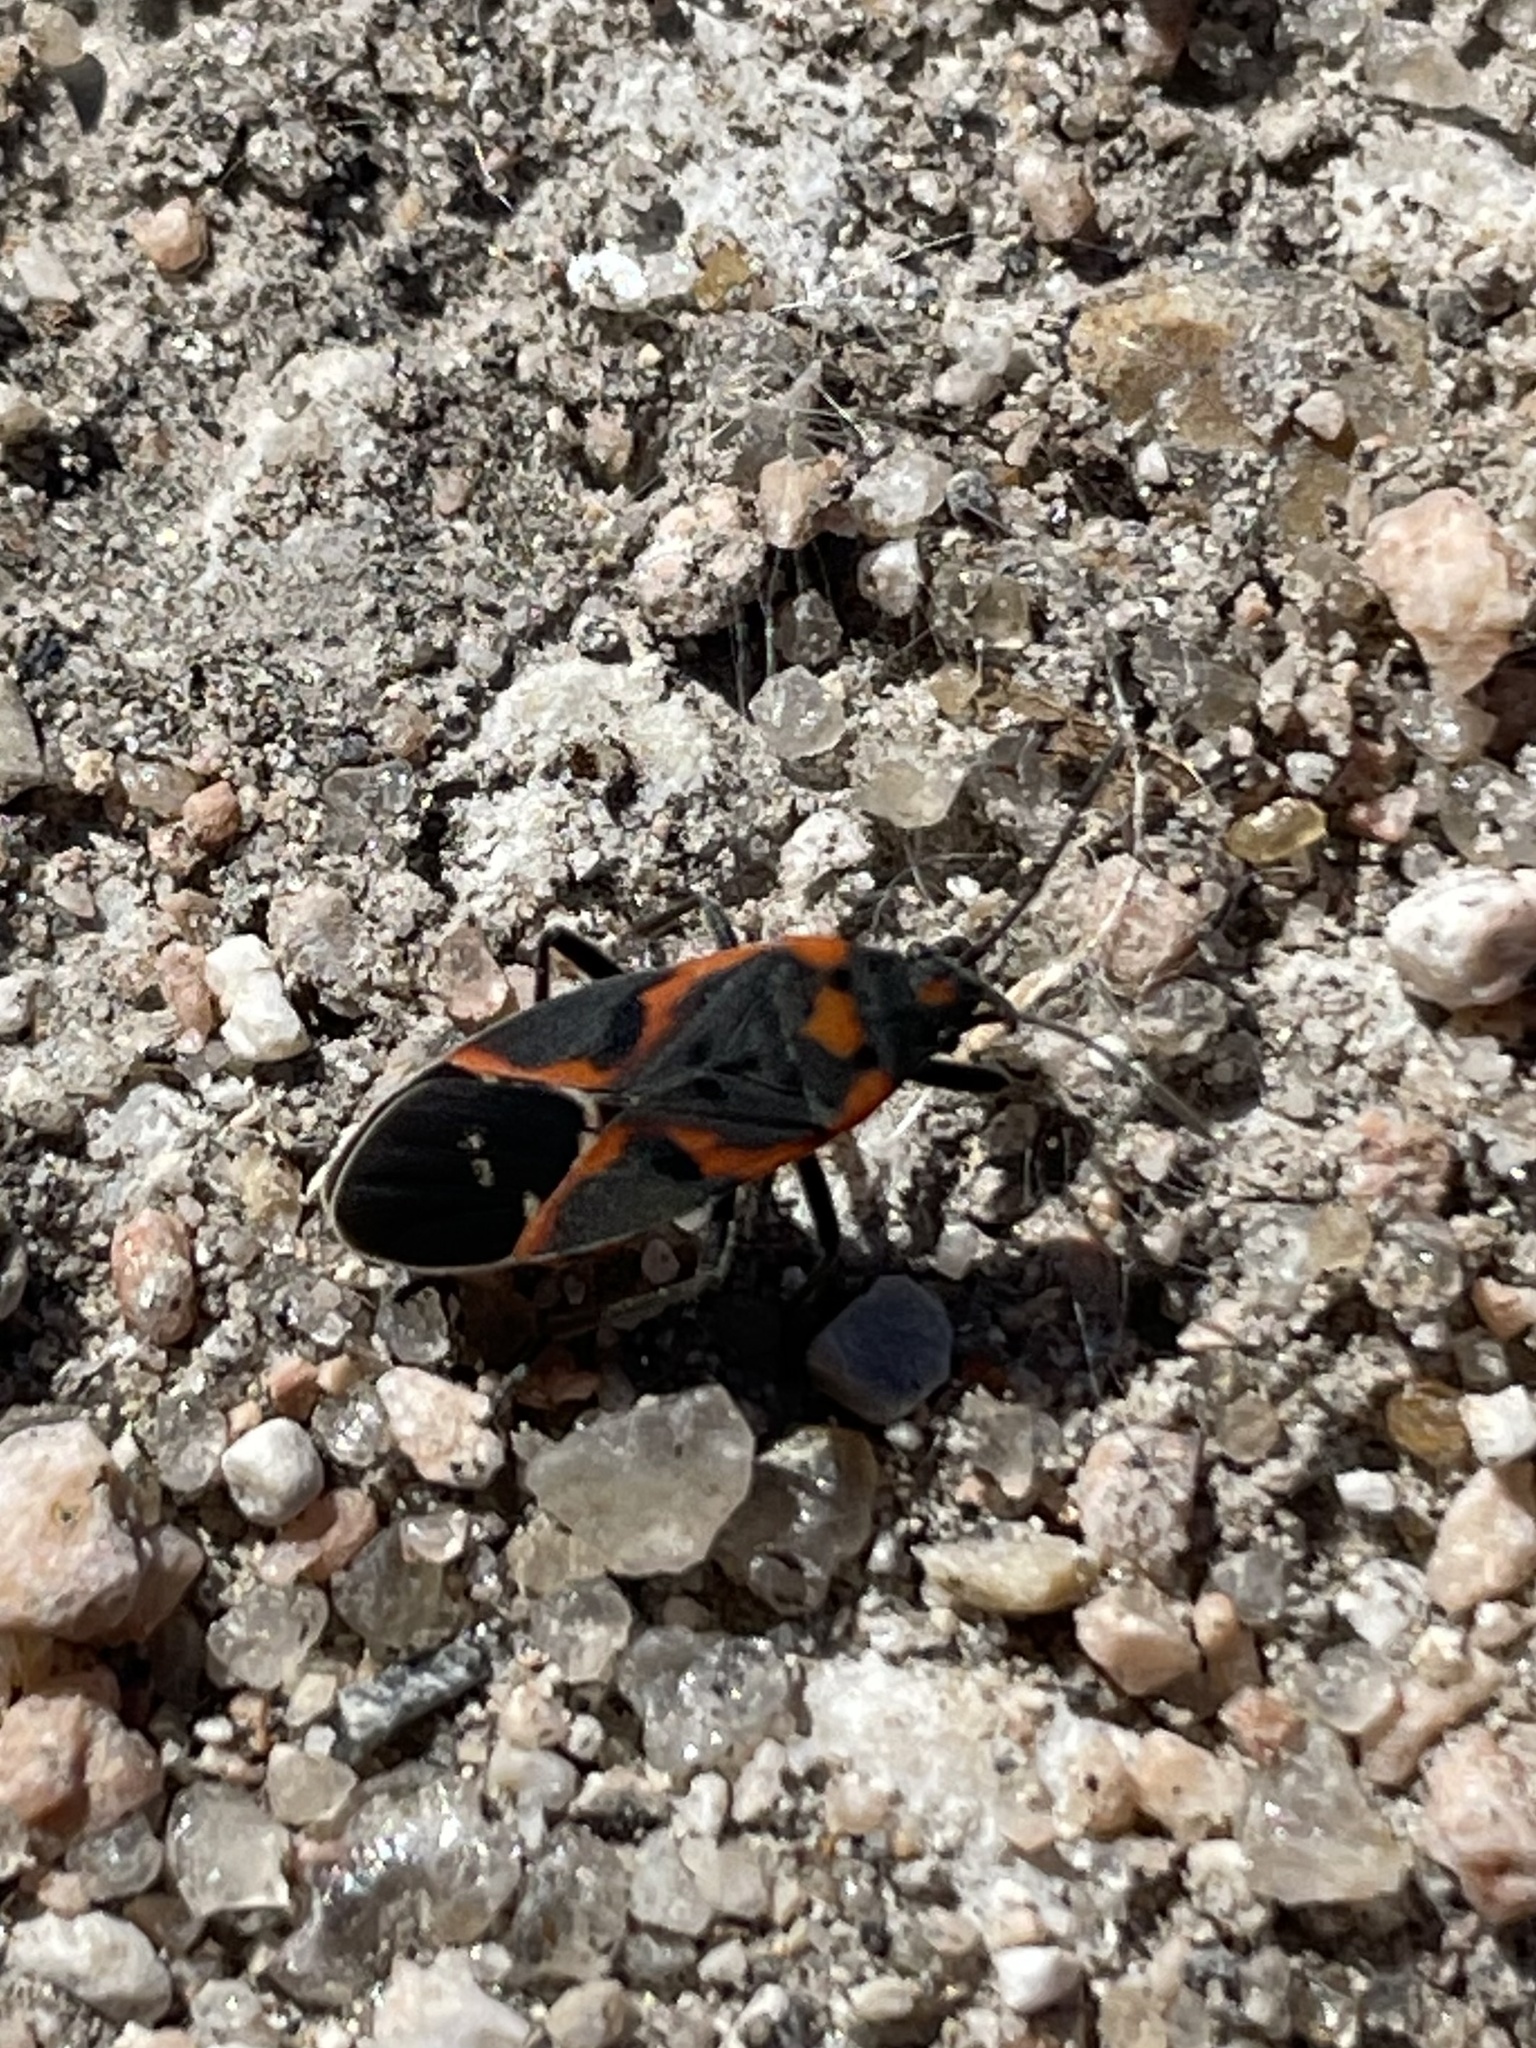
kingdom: Animalia
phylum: Arthropoda
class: Insecta
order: Hemiptera
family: Lygaeidae
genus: Lygaeus
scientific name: Lygaeus kalmii
